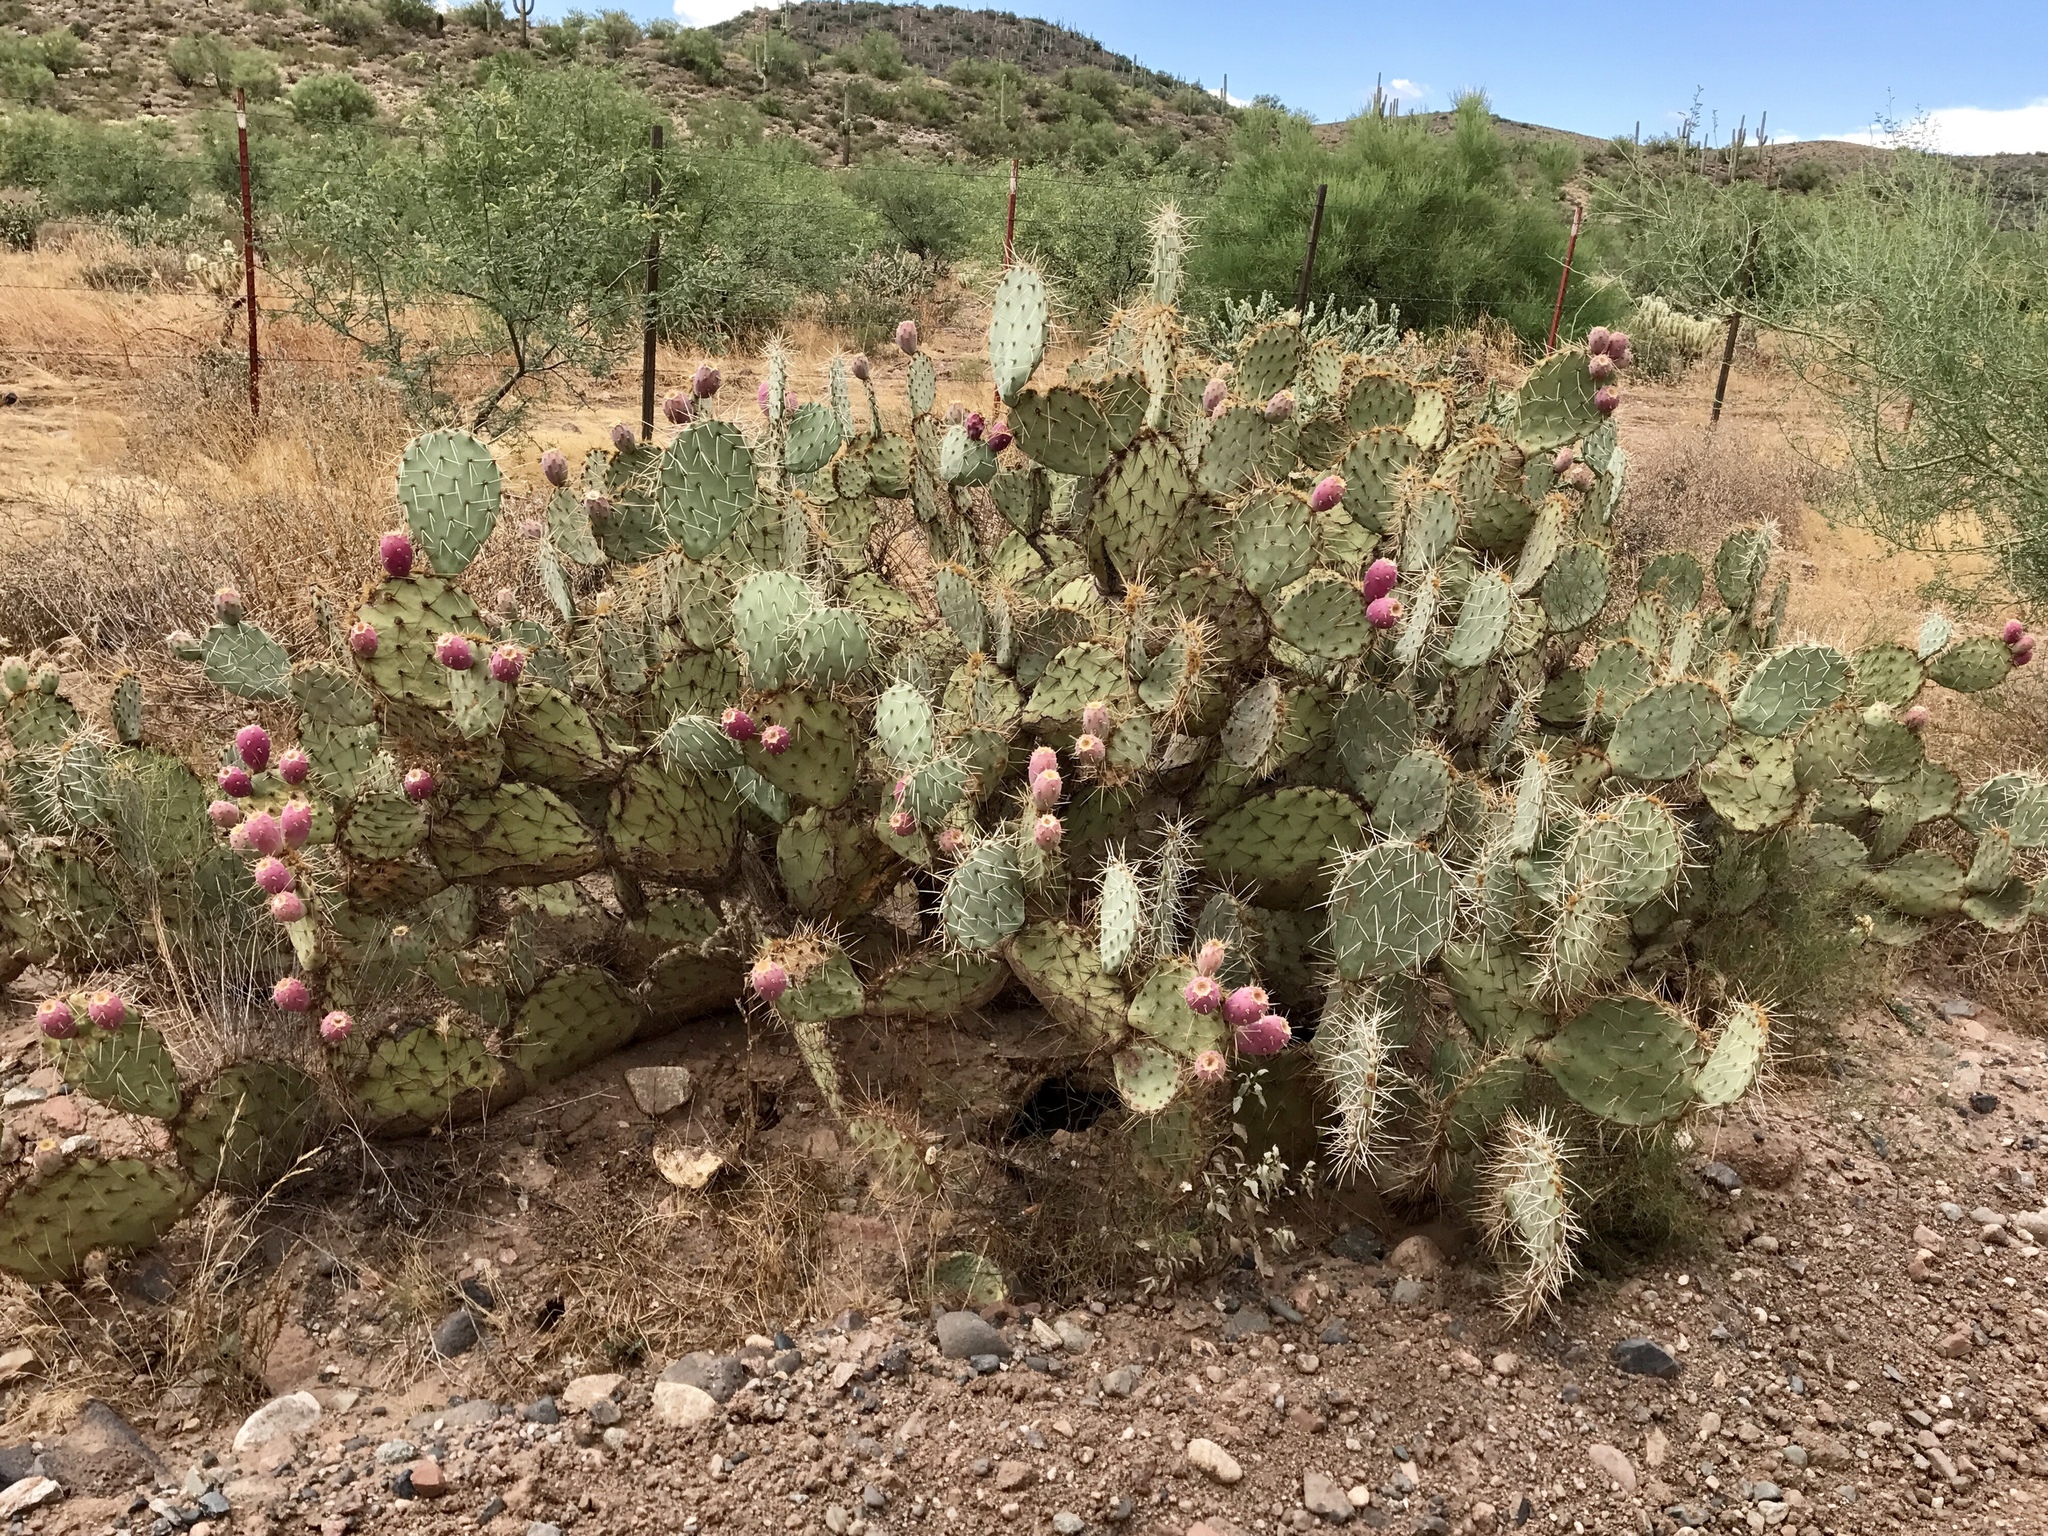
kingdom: Plantae
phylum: Tracheophyta
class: Magnoliopsida
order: Caryophyllales
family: Cactaceae
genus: Opuntia
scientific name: Opuntia engelmannii
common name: Cactus-apple
